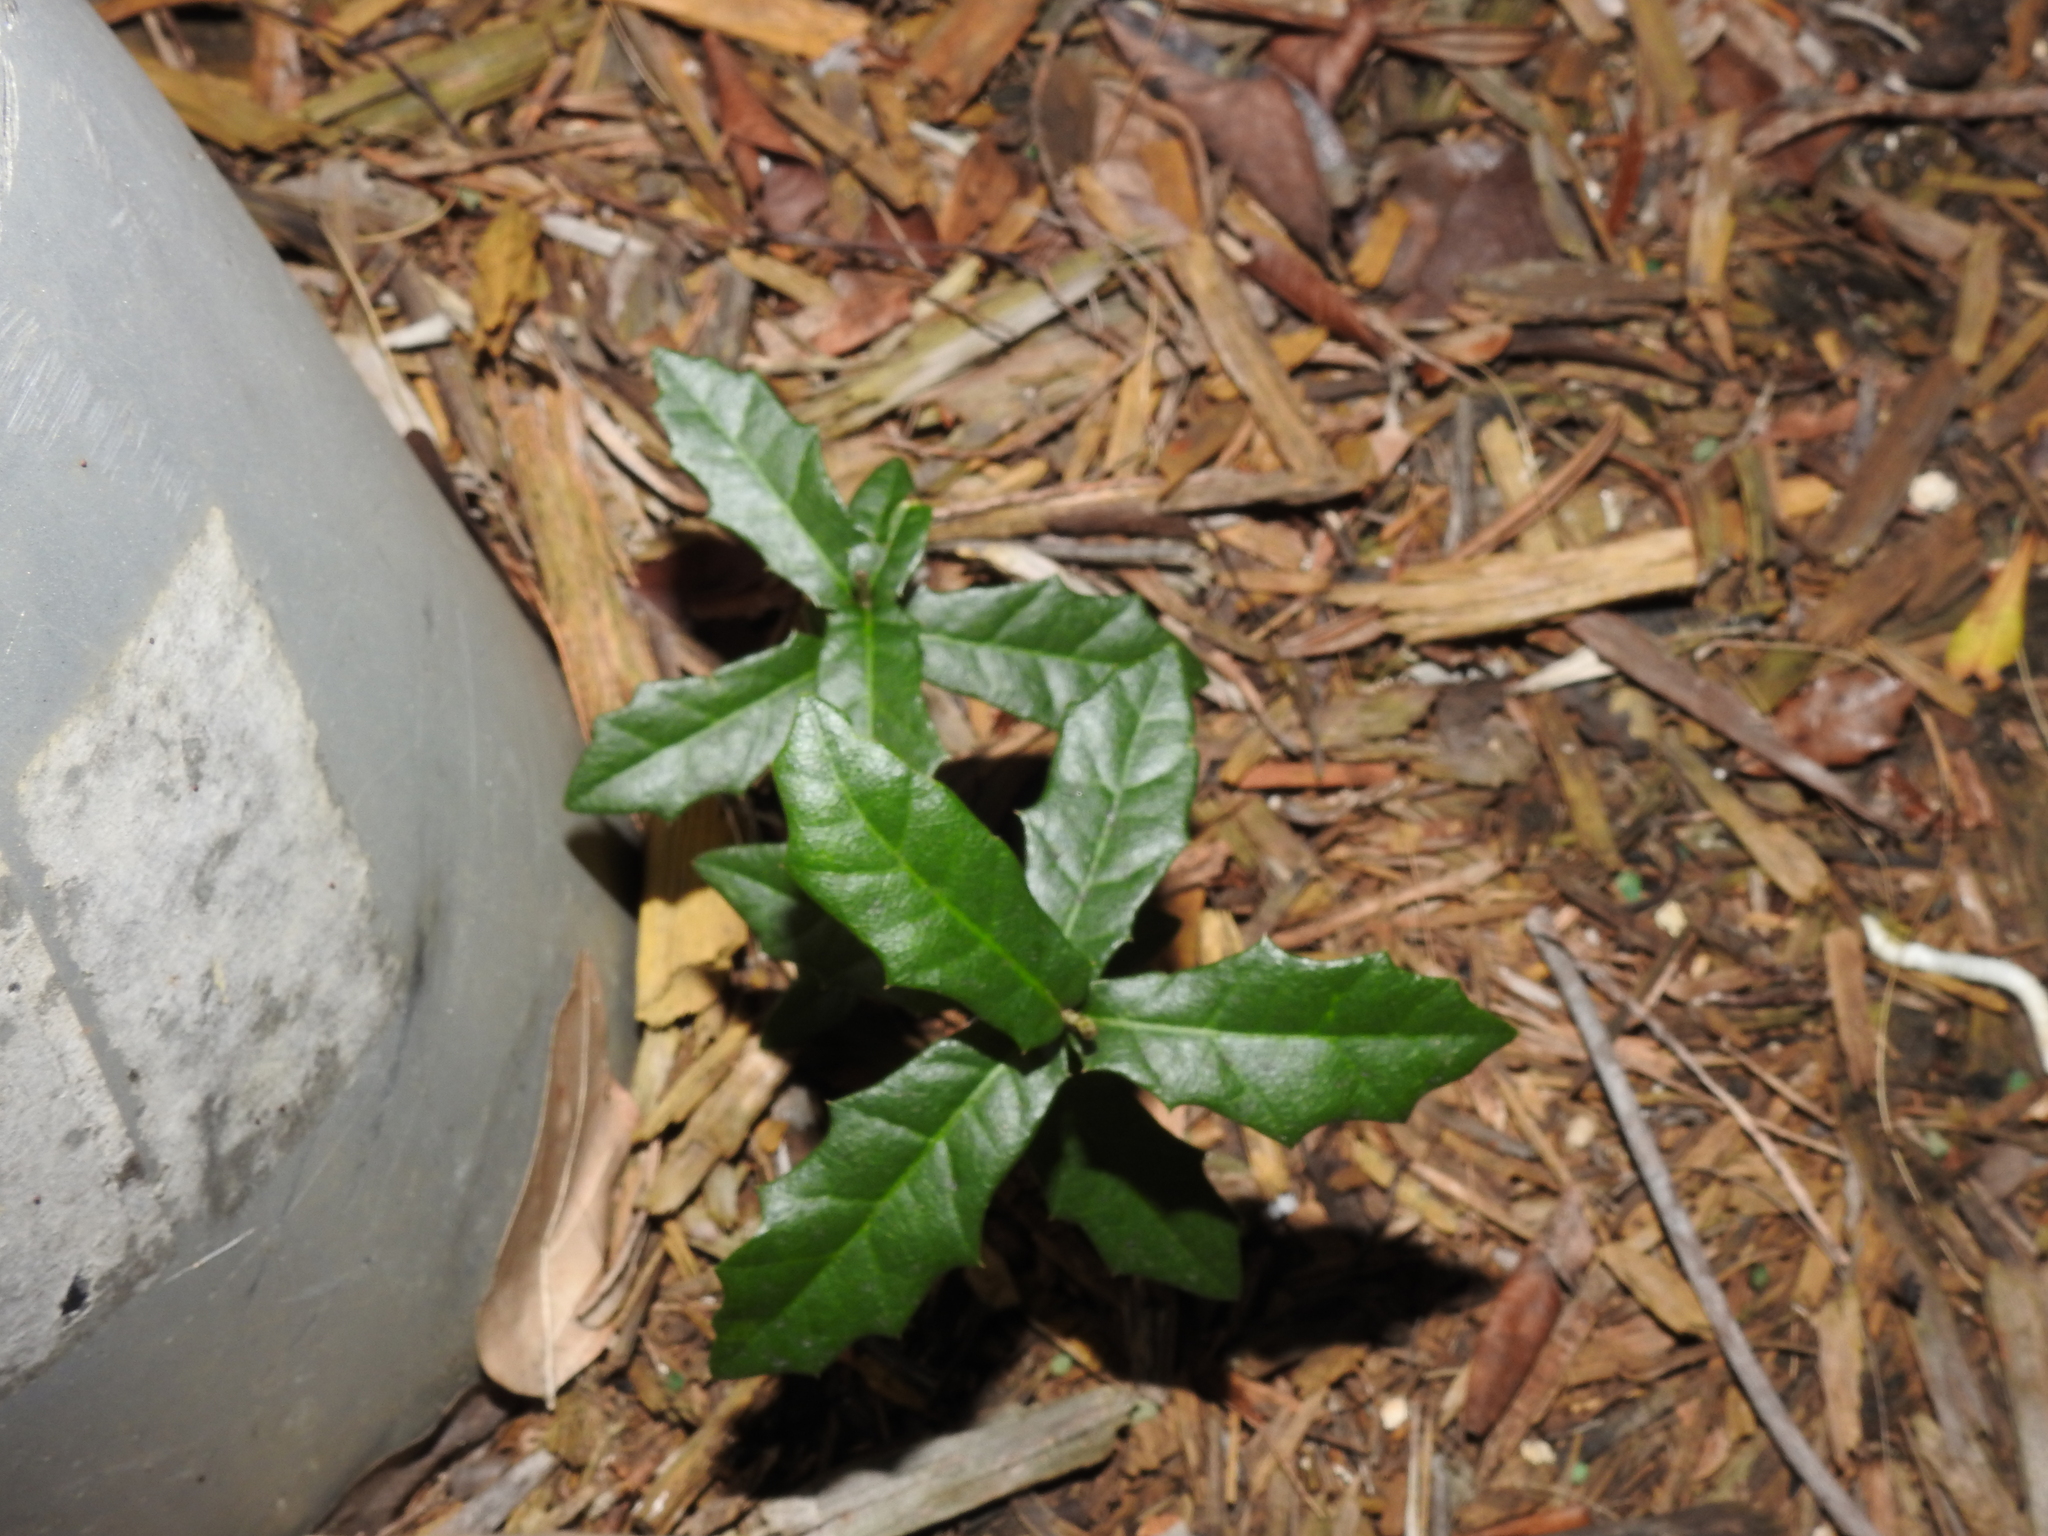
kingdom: Plantae
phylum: Tracheophyta
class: Magnoliopsida
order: Fagales
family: Fagaceae
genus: Quercus
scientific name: Quercus virginiana
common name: Southern live oak
